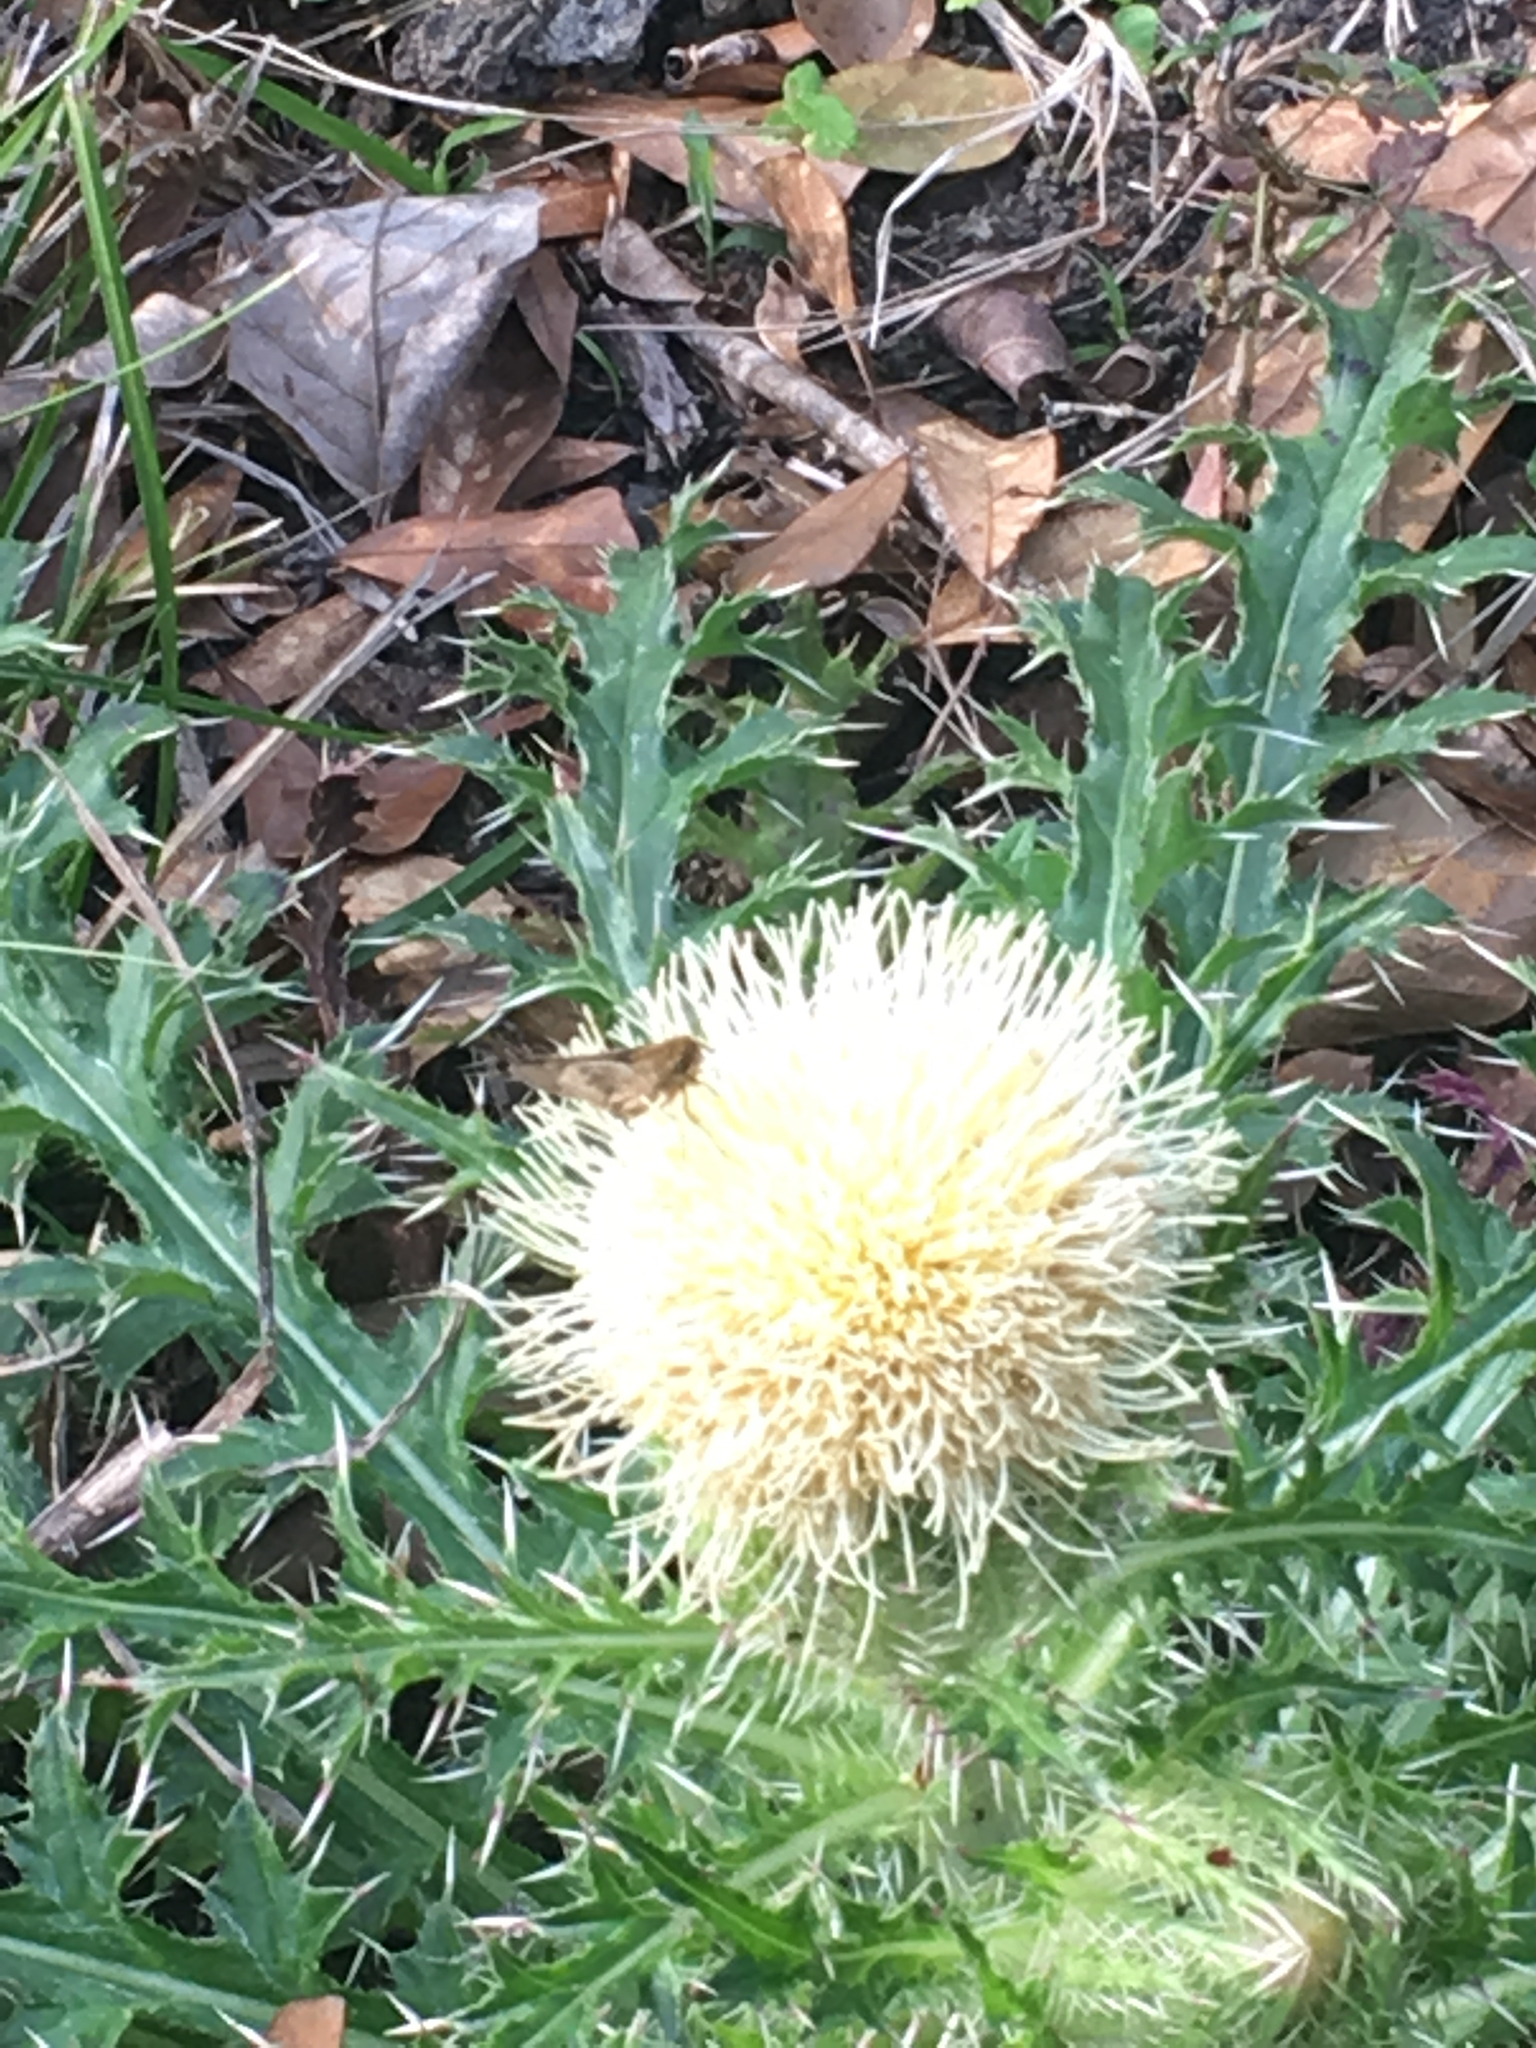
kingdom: Plantae
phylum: Tracheophyta
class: Magnoliopsida
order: Asterales
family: Asteraceae
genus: Cirsium
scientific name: Cirsium horridulum
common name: Bristly thistle
